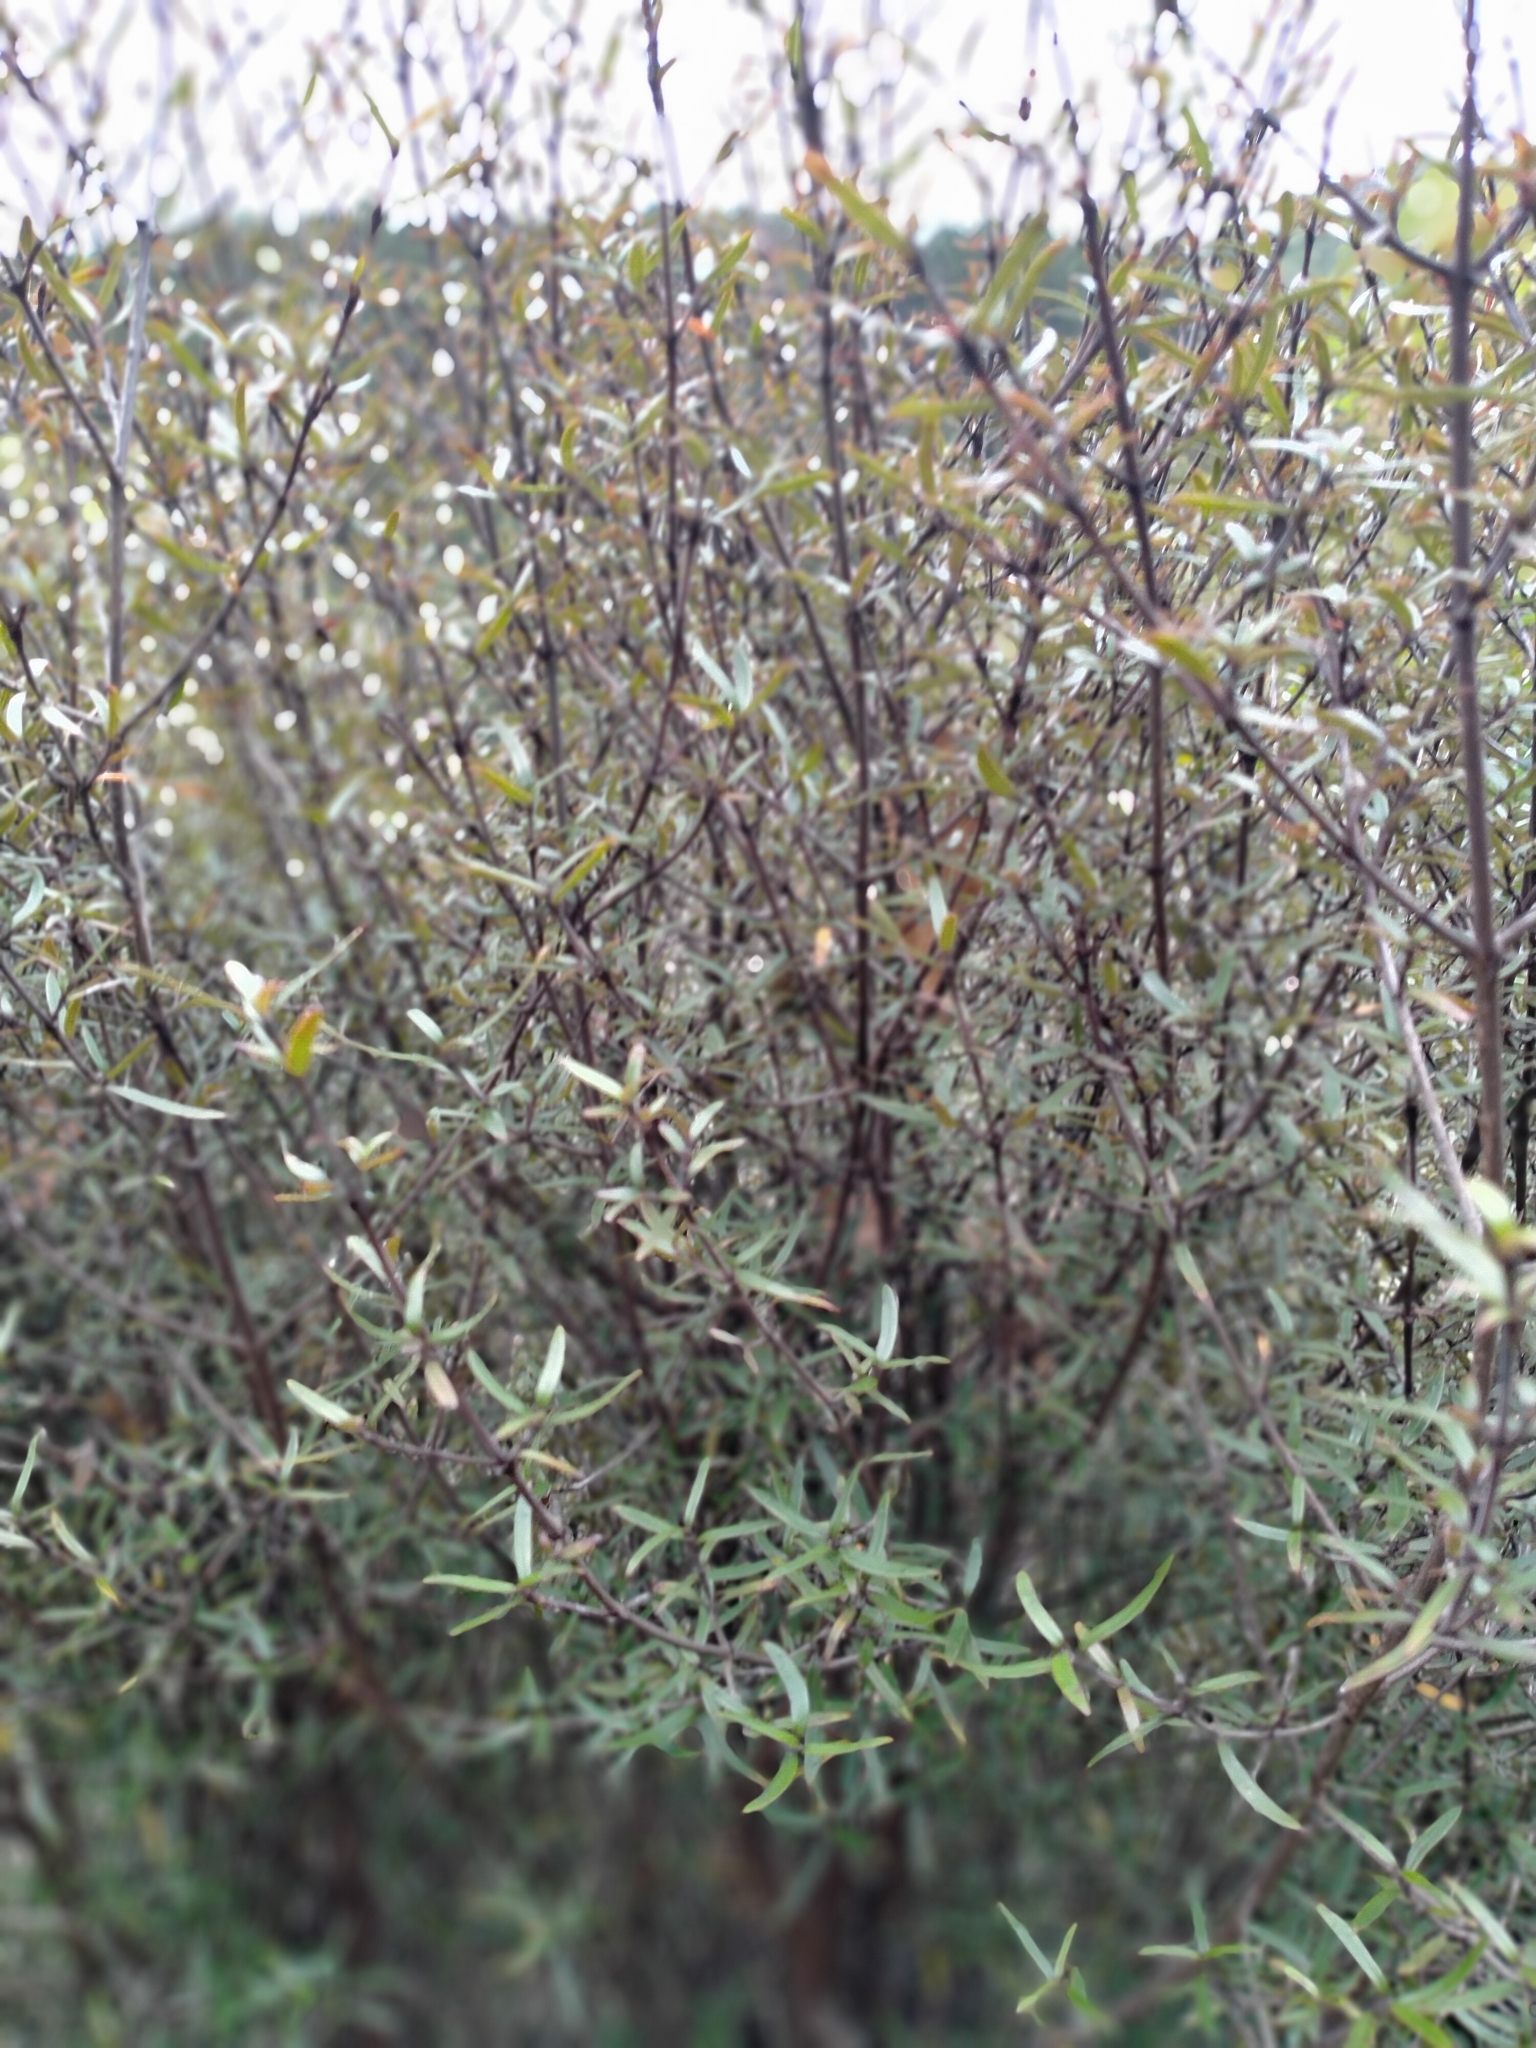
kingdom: Plantae
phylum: Tracheophyta
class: Magnoliopsida
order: Gentianales
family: Rubiaceae
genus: Coprosma
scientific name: Coprosma linariifolia
